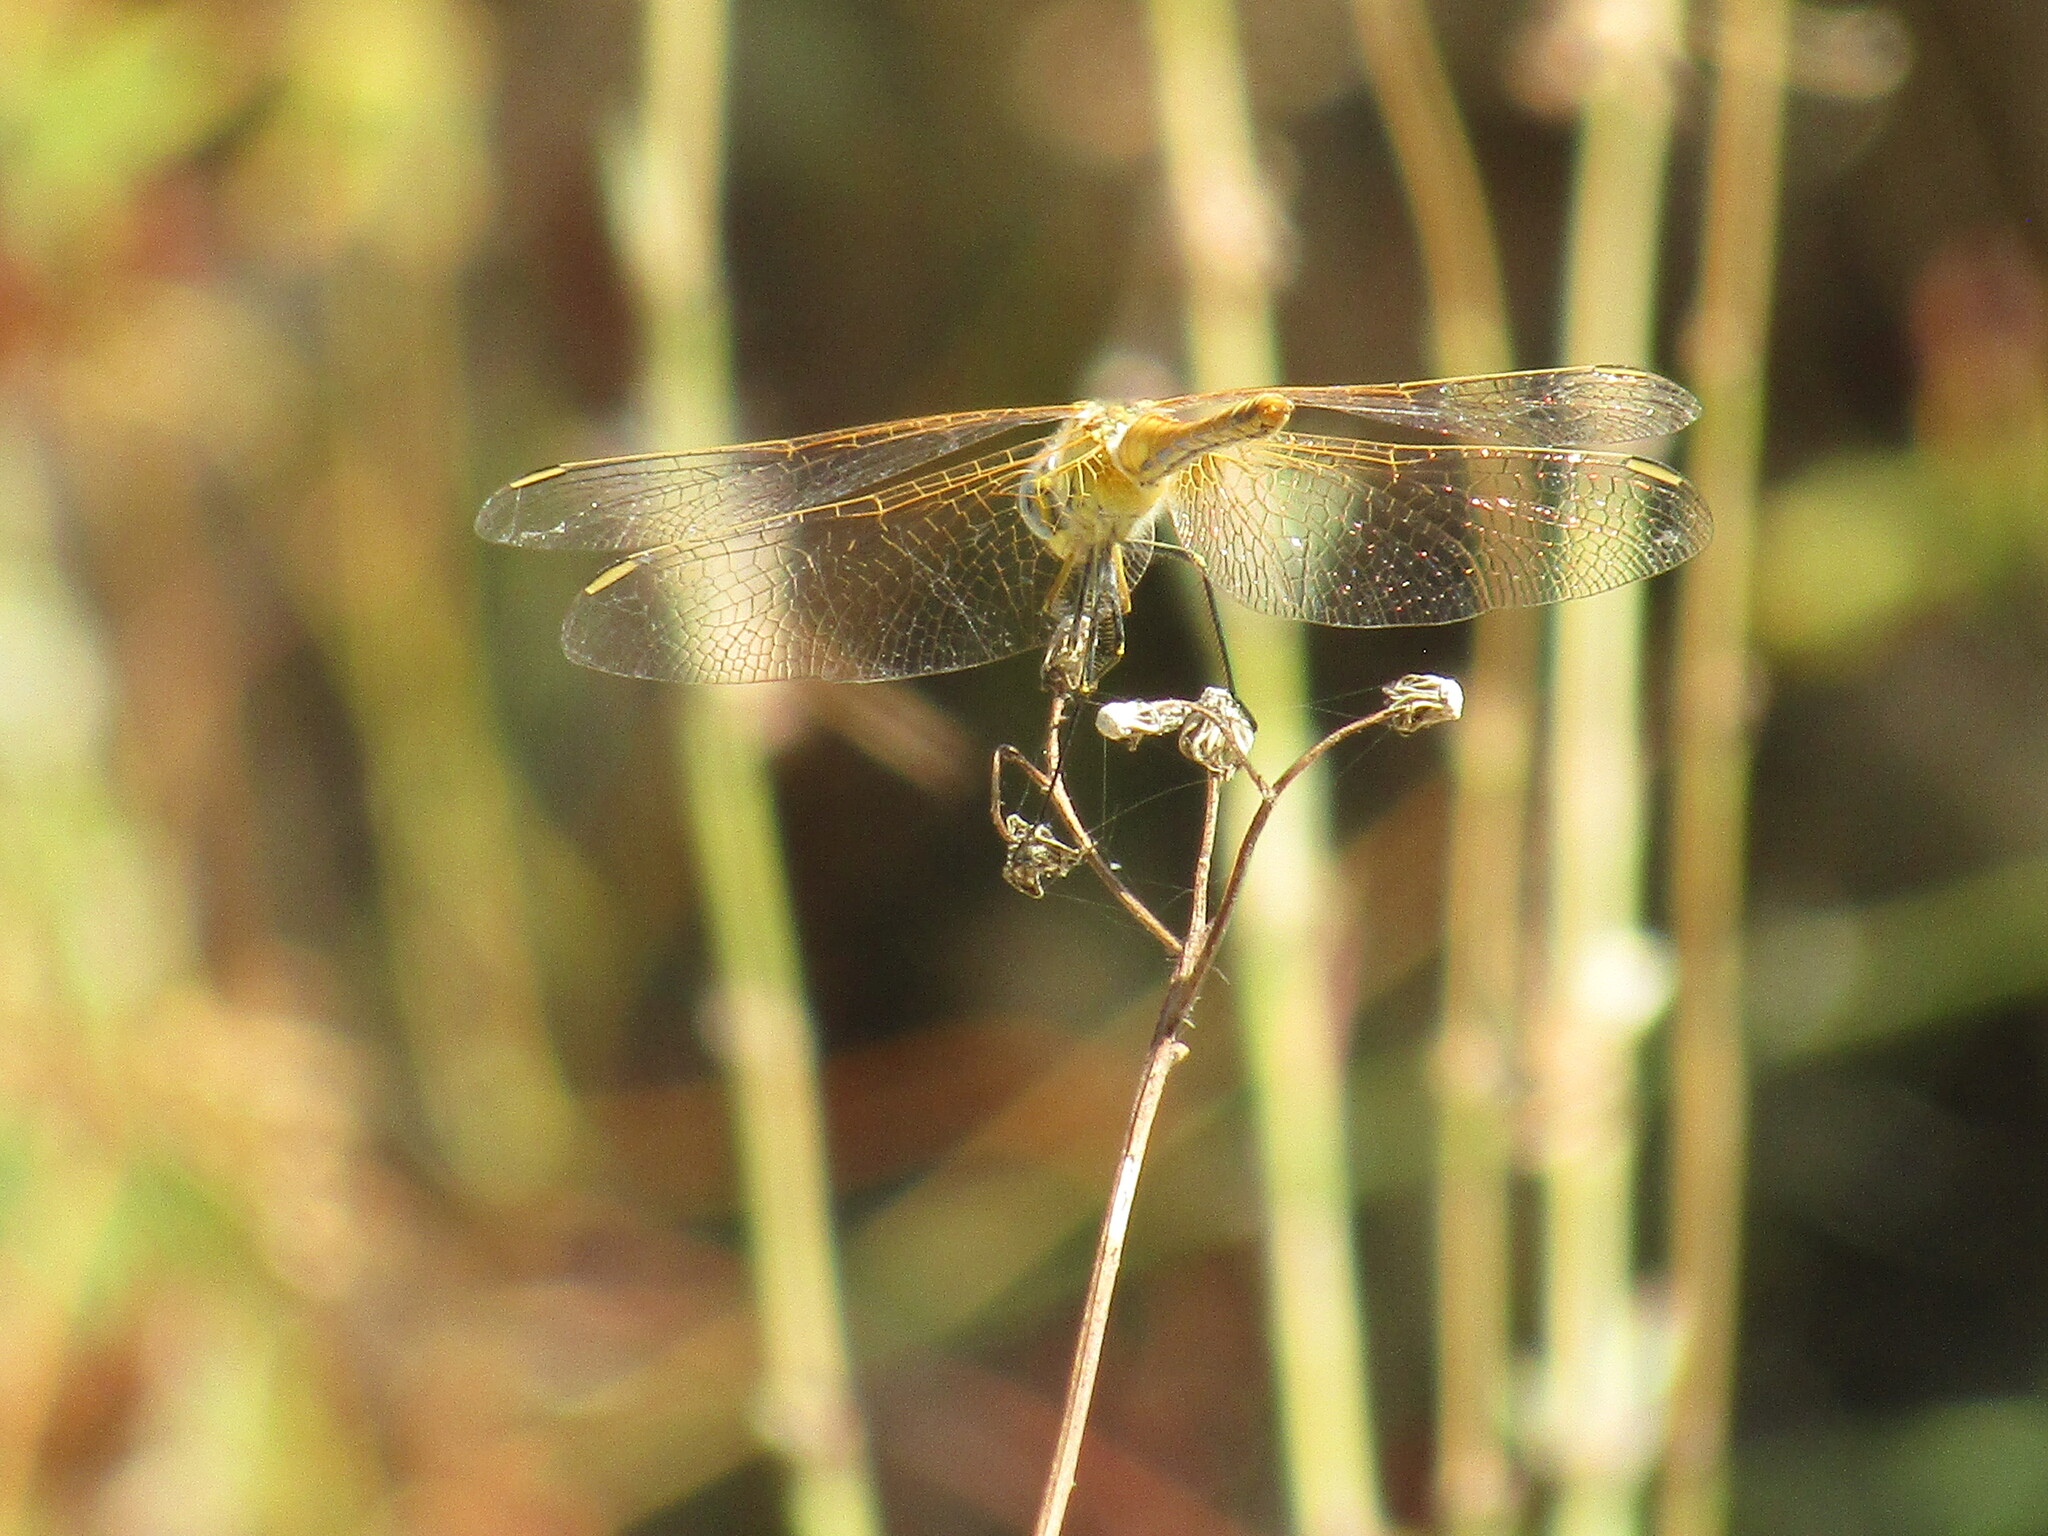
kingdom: Animalia
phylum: Arthropoda
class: Insecta
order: Odonata
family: Libellulidae
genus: Sympetrum
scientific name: Sympetrum fonscolombii
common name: Red-veined darter
